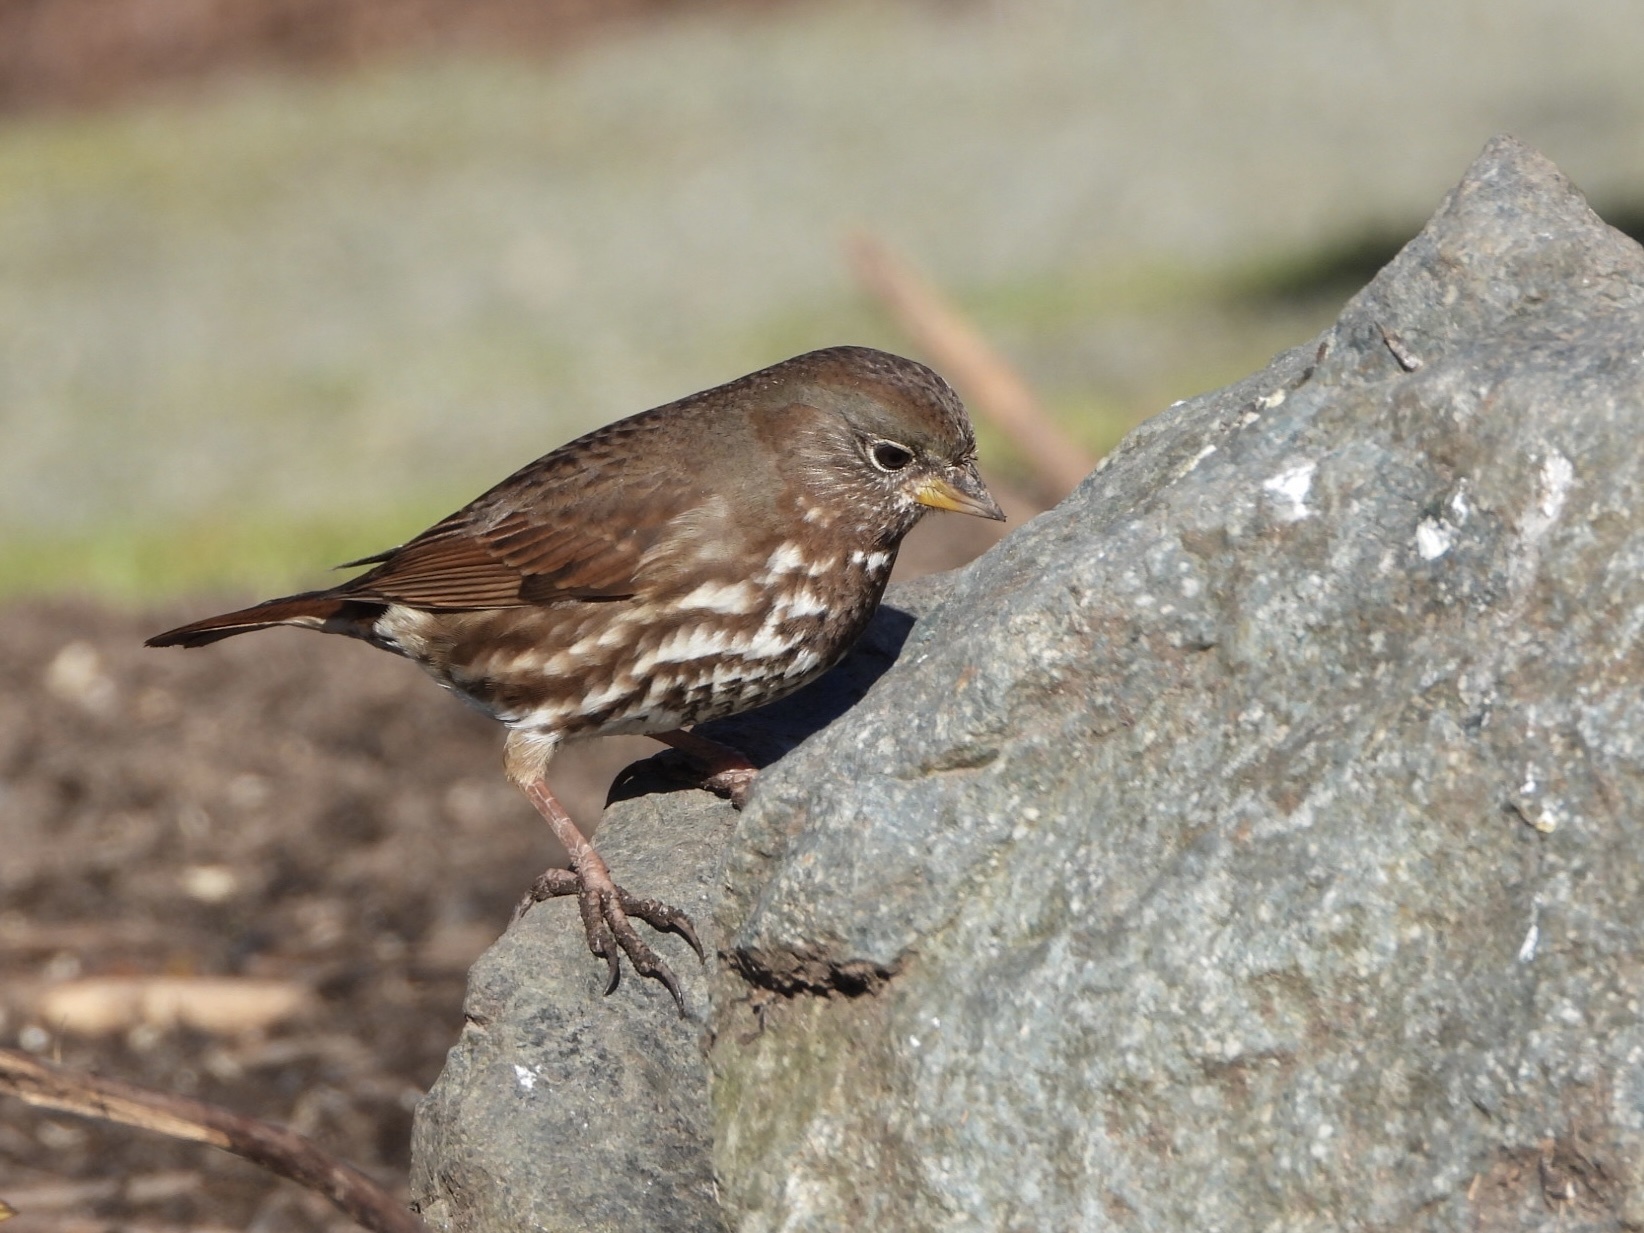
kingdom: Animalia
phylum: Chordata
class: Aves
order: Passeriformes
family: Passerellidae
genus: Passerella
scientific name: Passerella iliaca
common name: Fox sparrow
